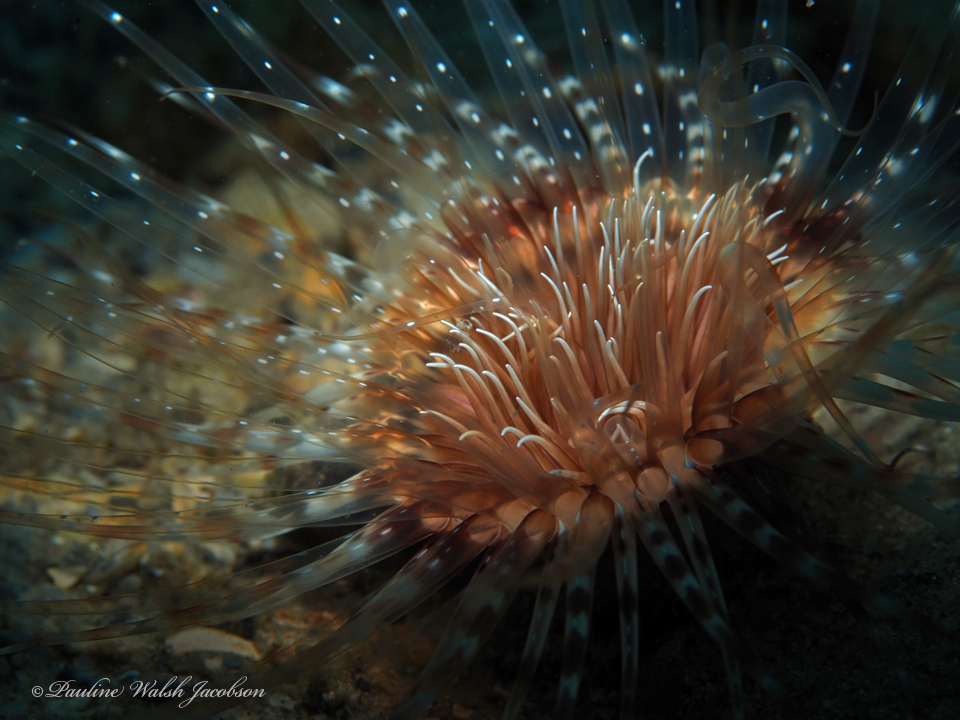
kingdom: Animalia
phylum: Cnidaria
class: Anthozoa
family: Cerianthidae
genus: Ceriantheopsis
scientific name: Ceriantheopsis americana
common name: American tube-dwelling anemone
